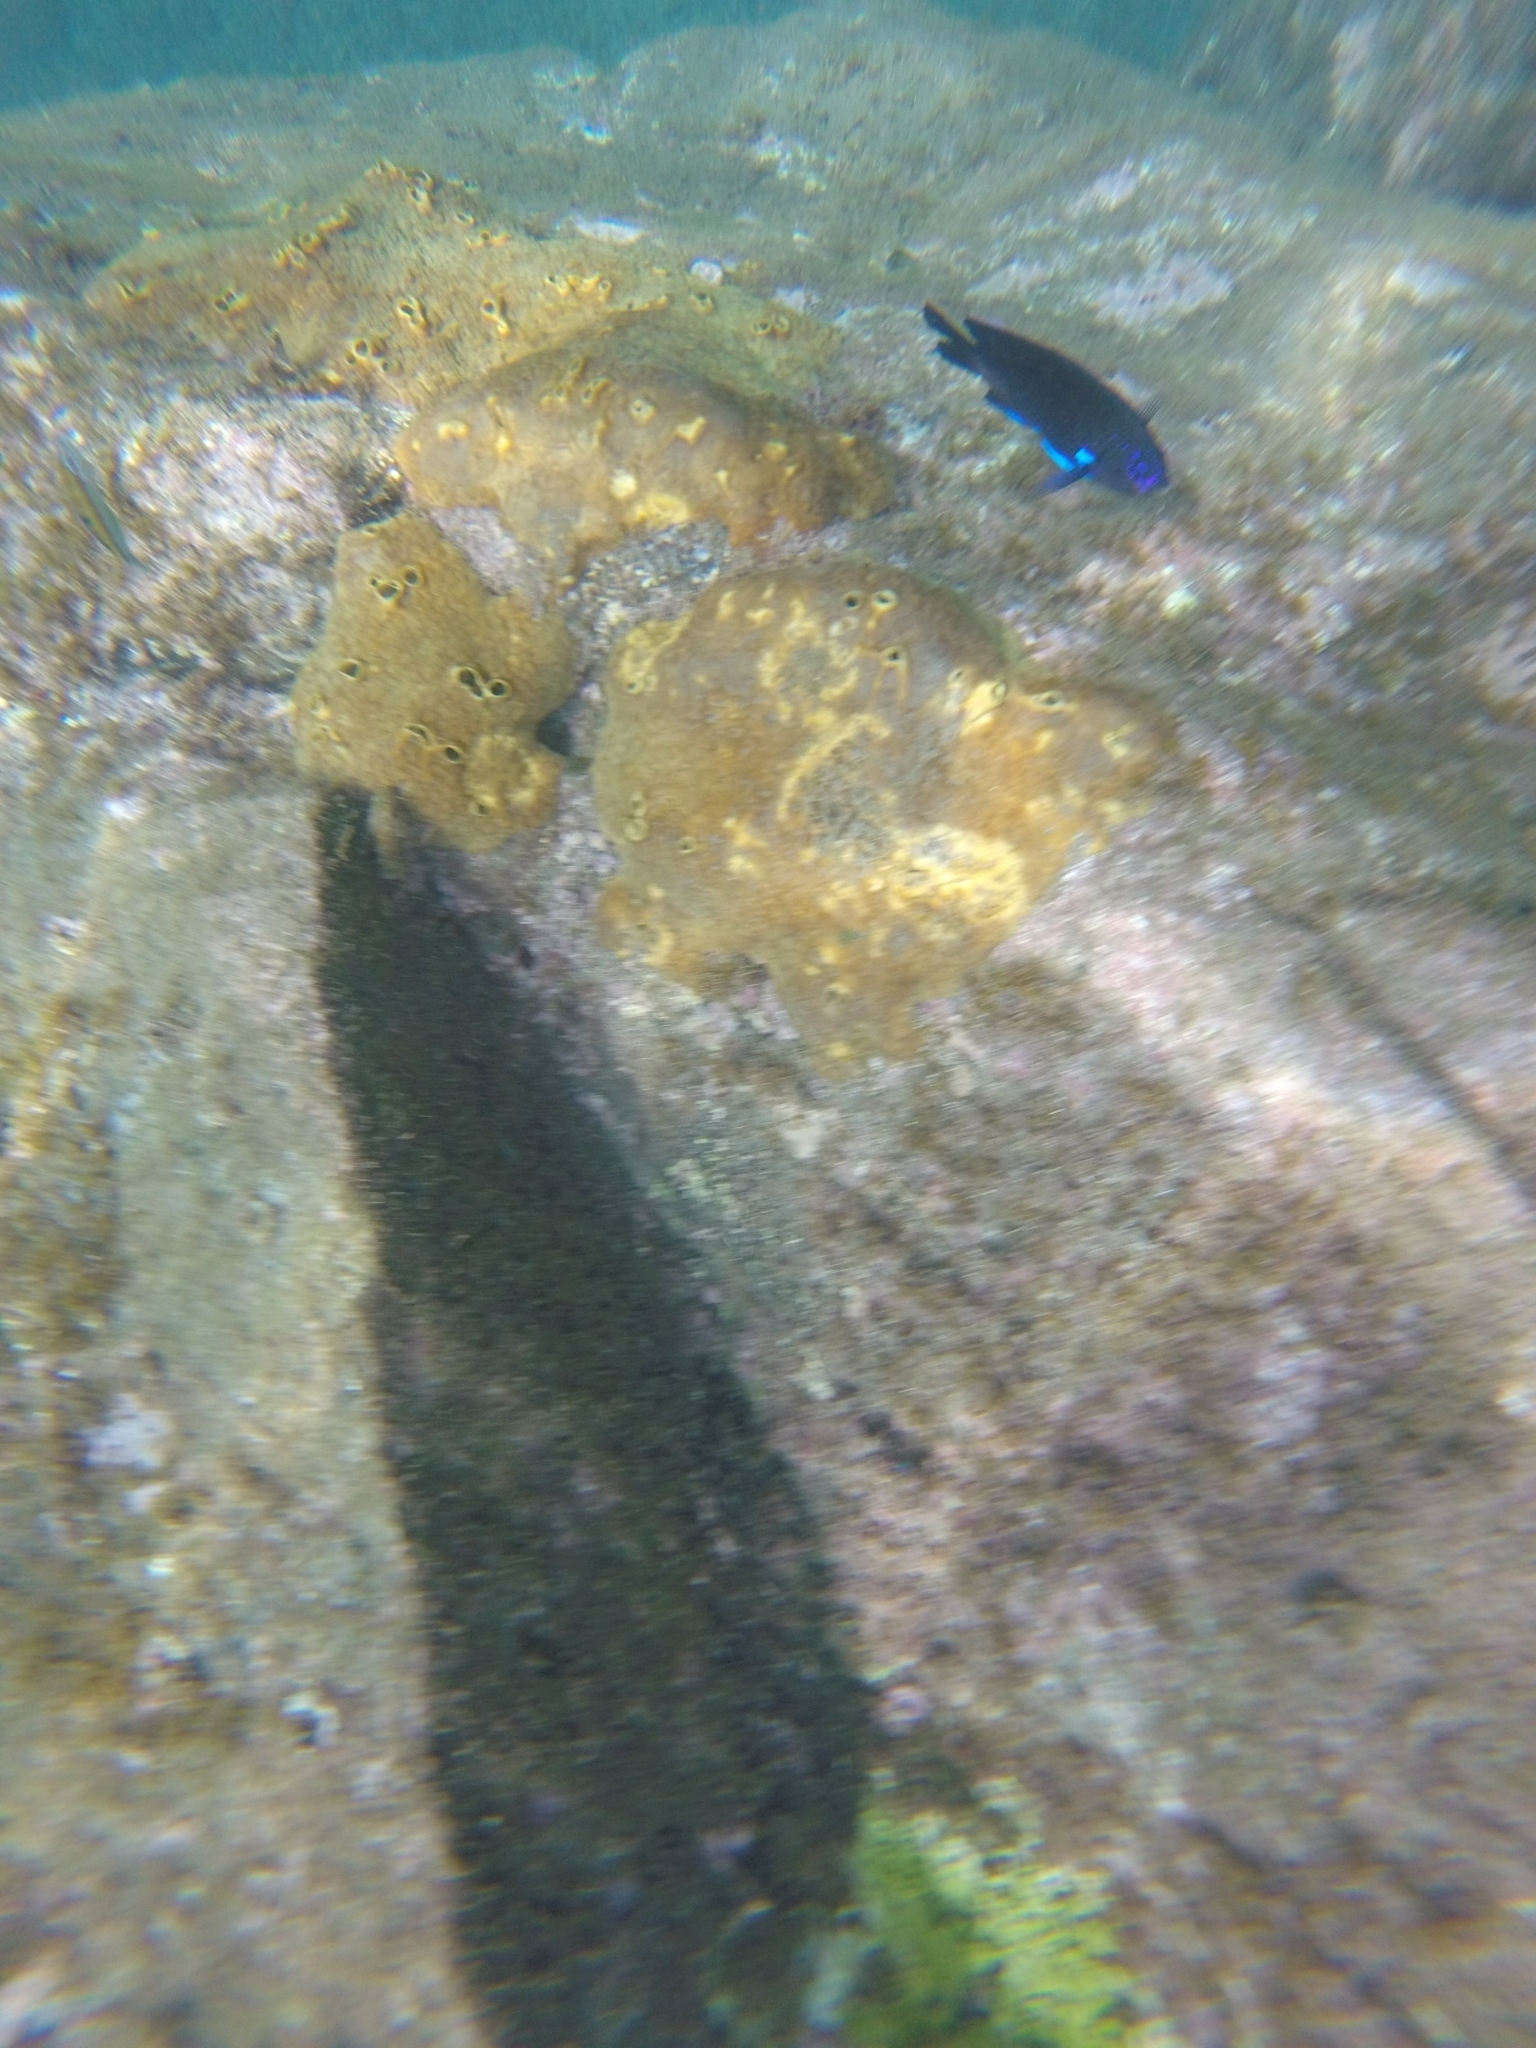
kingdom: Animalia
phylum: Chordata
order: Perciformes
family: Pomacentridae
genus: Similiparma
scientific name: Similiparma lurida
